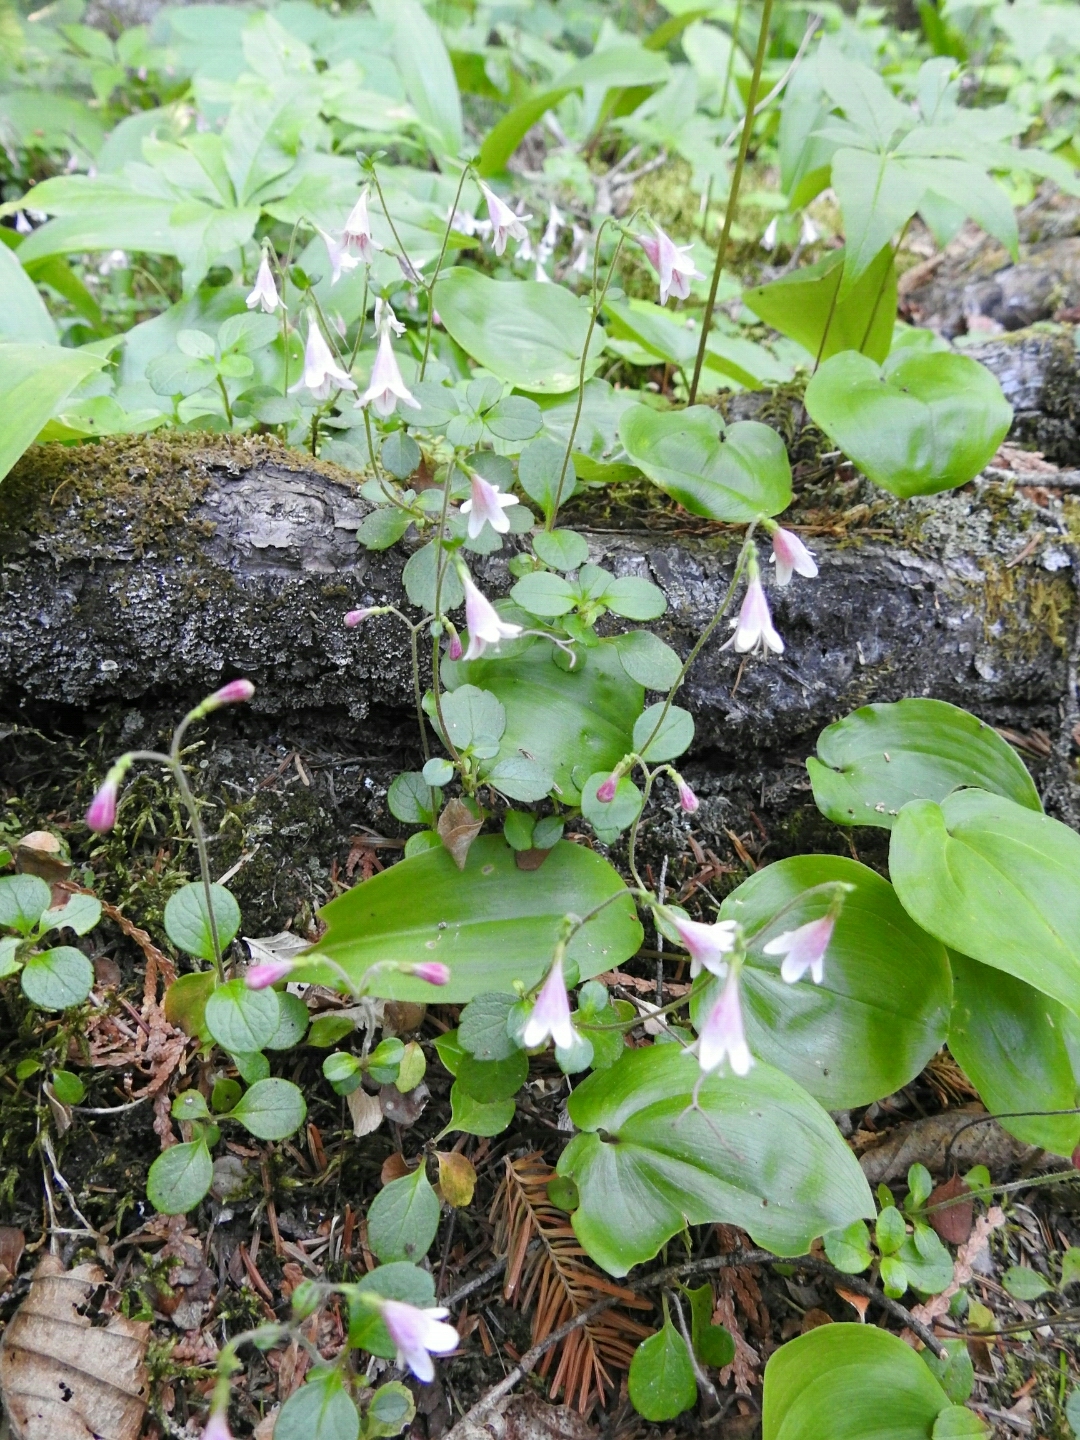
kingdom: Plantae
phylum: Tracheophyta
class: Magnoliopsida
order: Dipsacales
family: Caprifoliaceae
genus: Linnaea
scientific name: Linnaea borealis
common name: Twinflower
